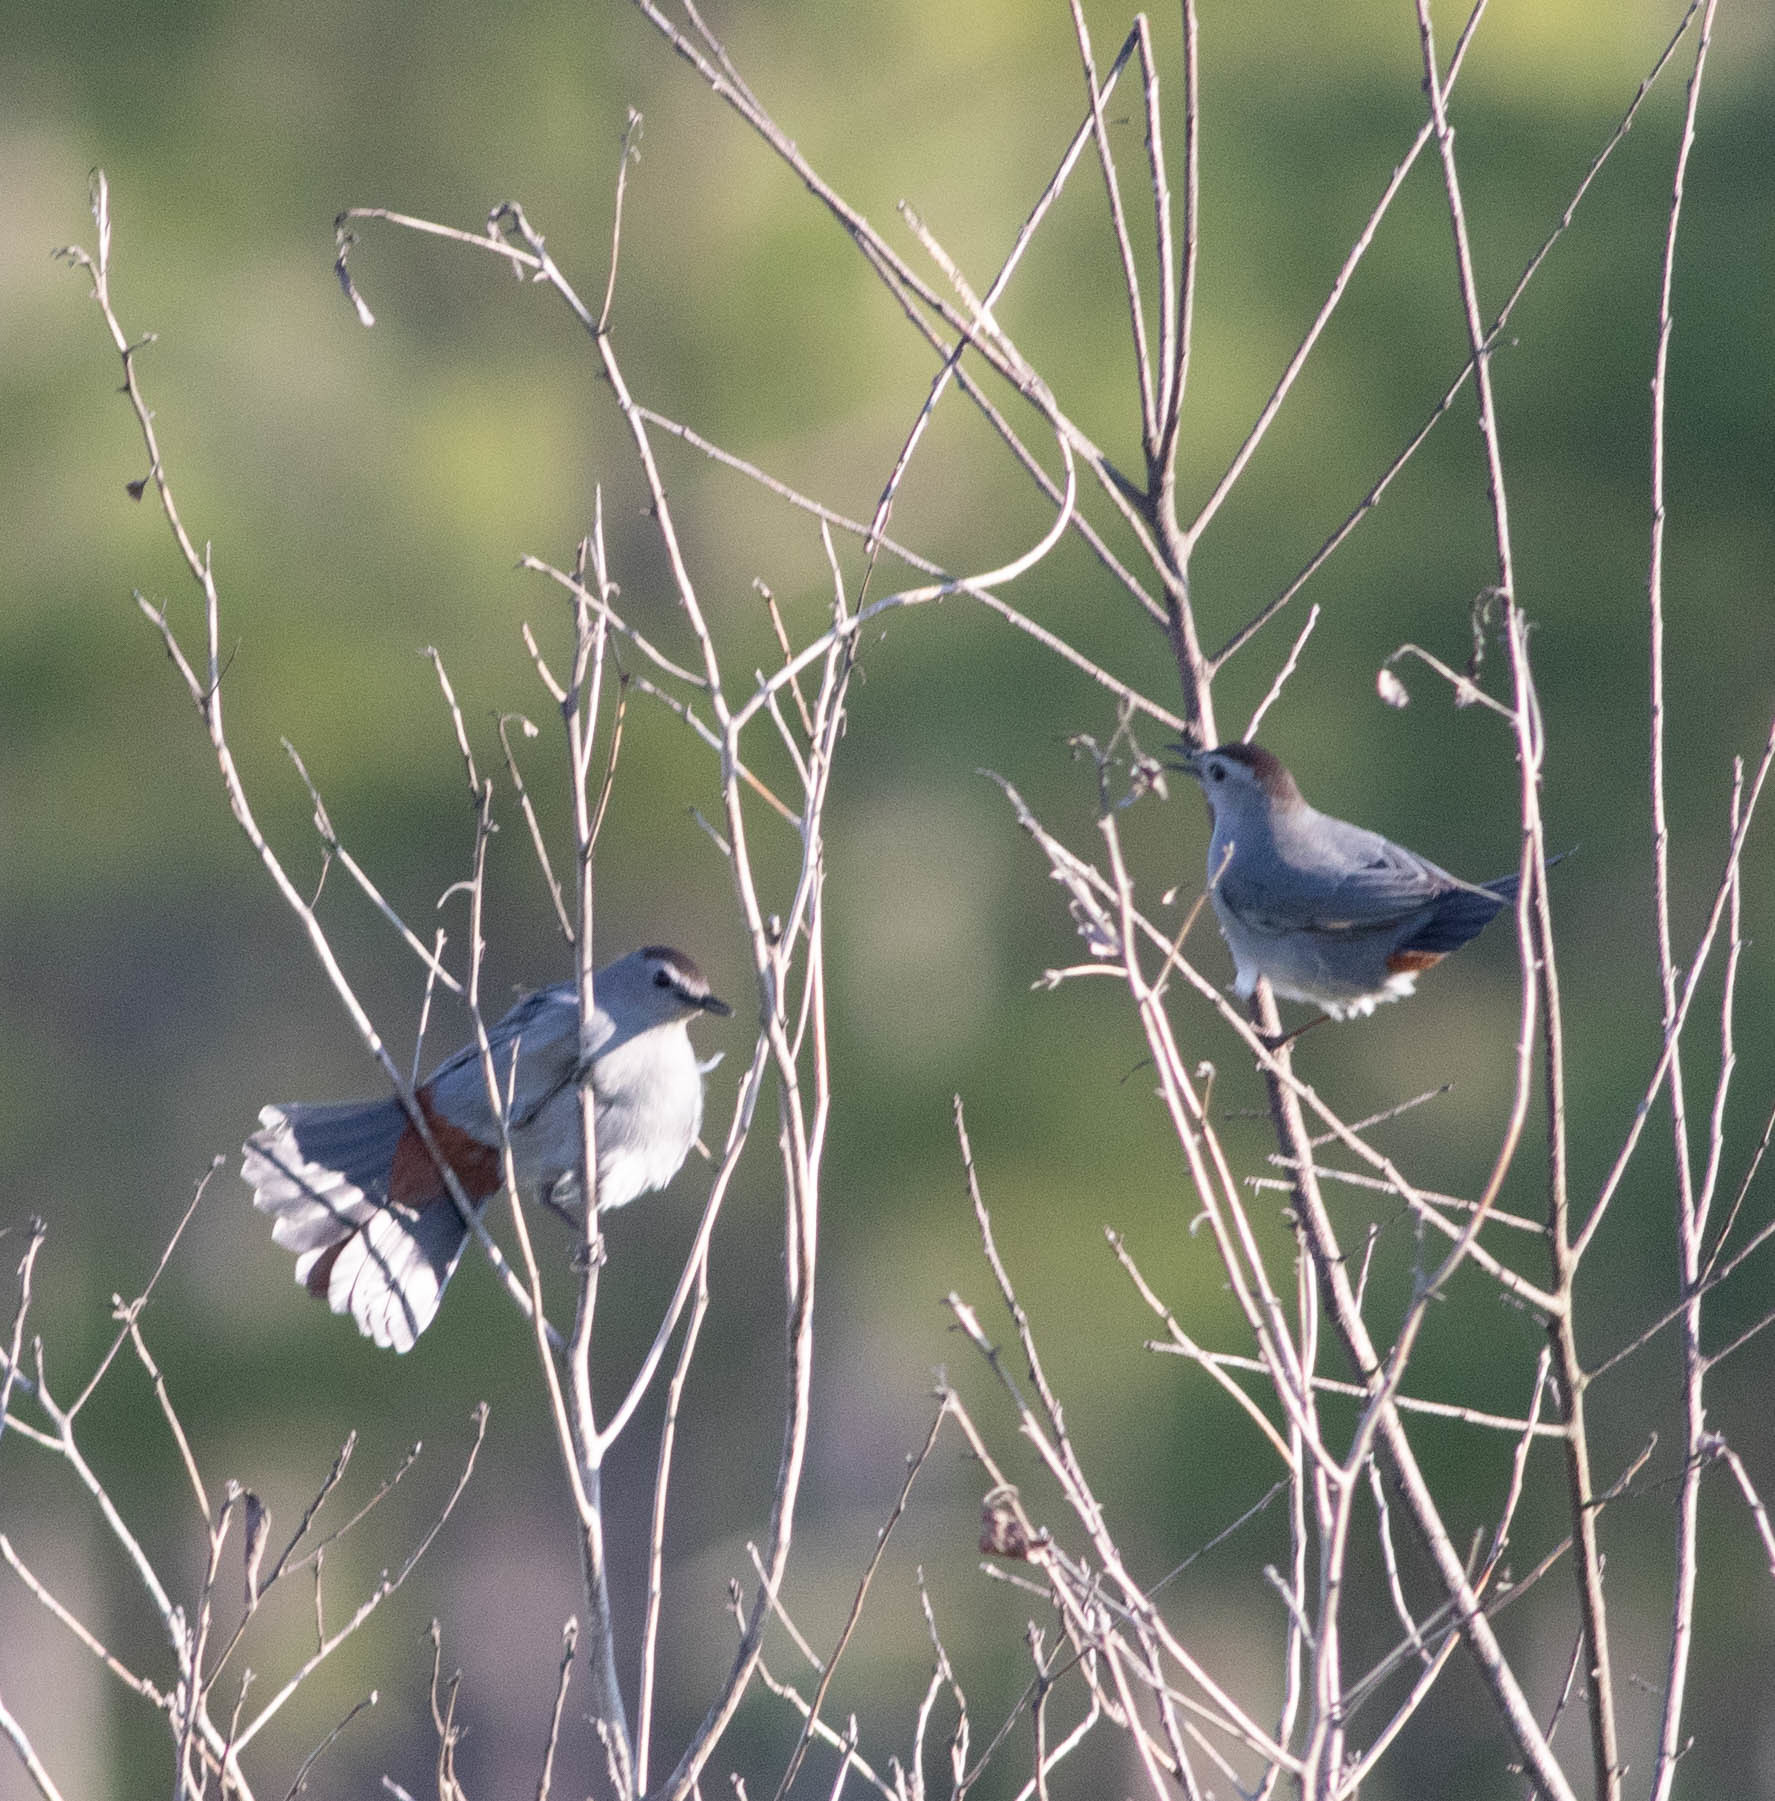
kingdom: Animalia
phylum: Chordata
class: Aves
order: Passeriformes
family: Mimidae
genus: Dumetella
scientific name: Dumetella carolinensis
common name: Gray catbird
